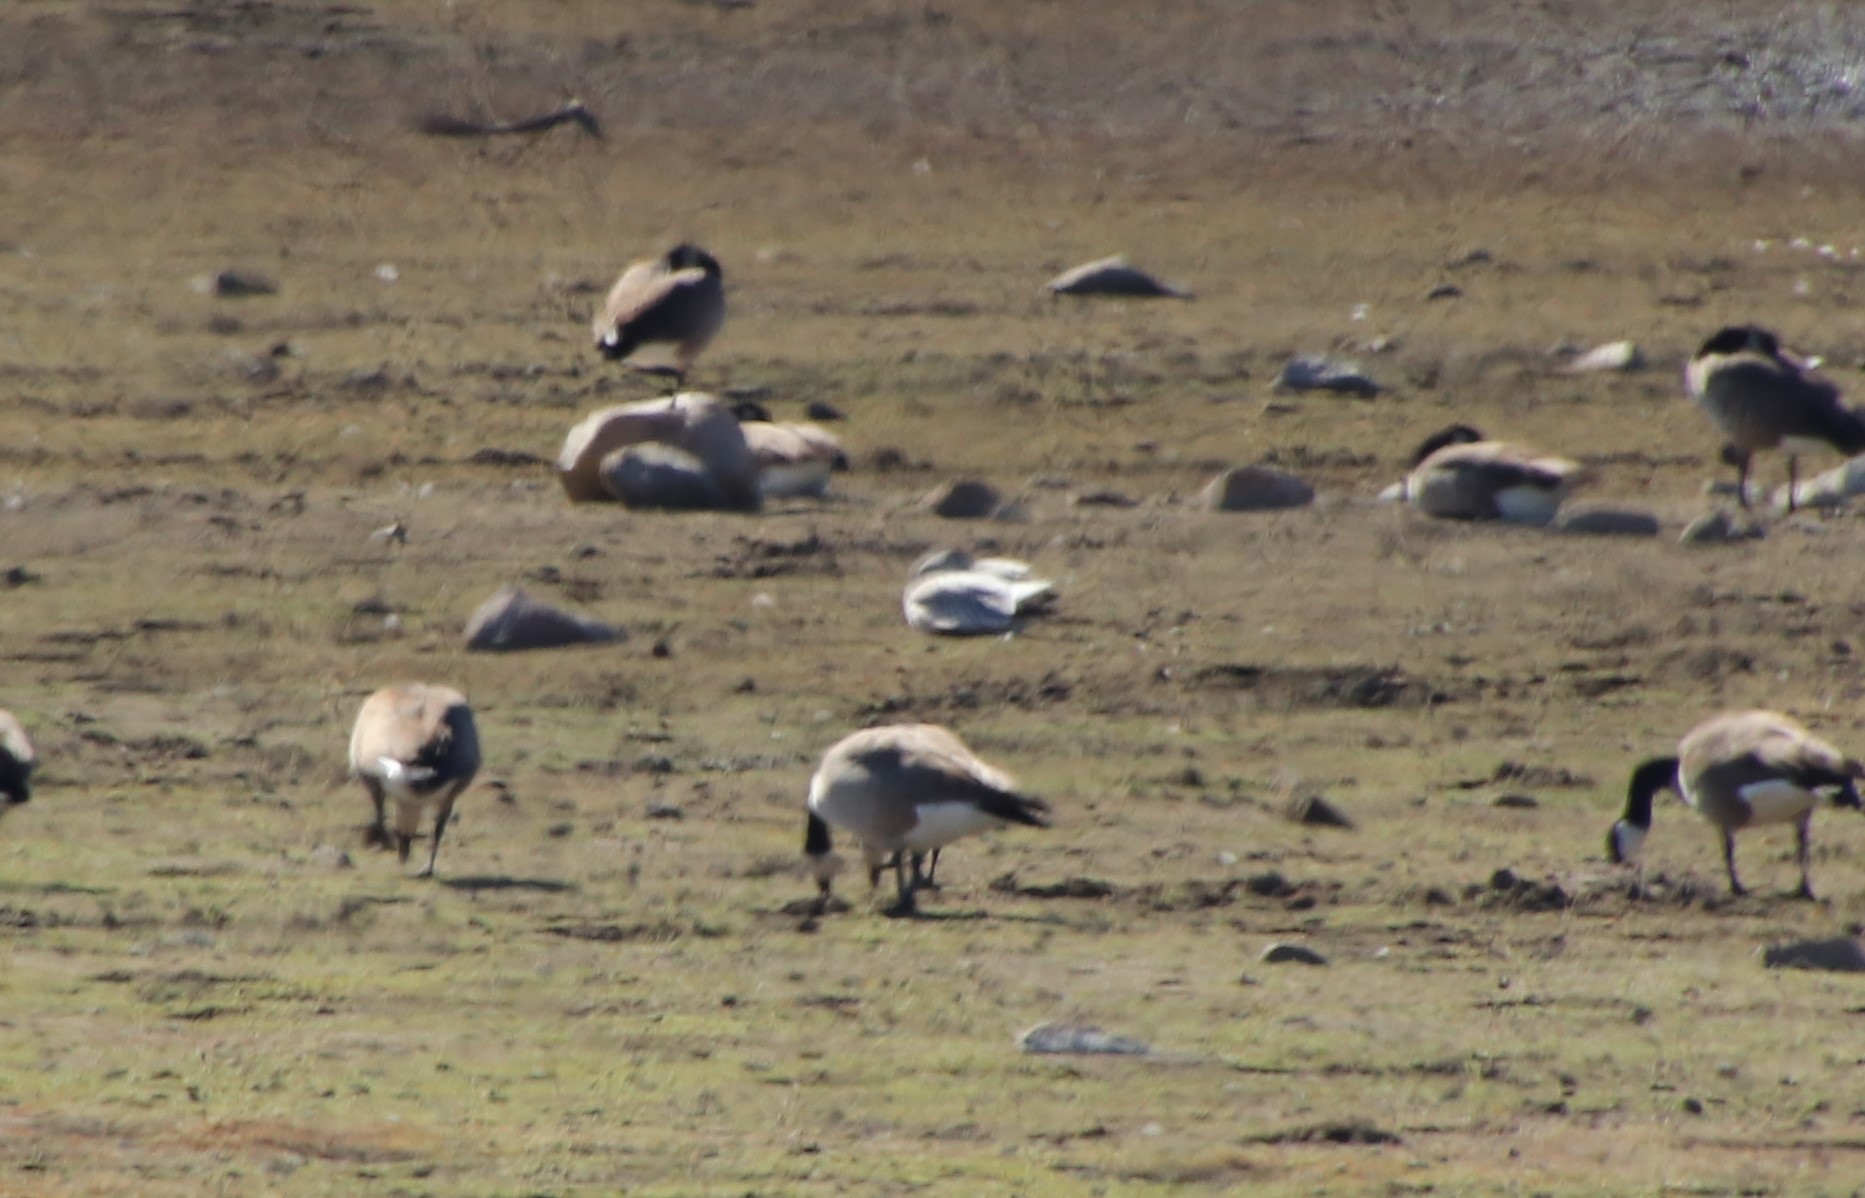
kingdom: Animalia
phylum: Chordata
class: Aves
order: Anseriformes
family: Anatidae
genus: Anser
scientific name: Anser caerulescens
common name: Snow goose
